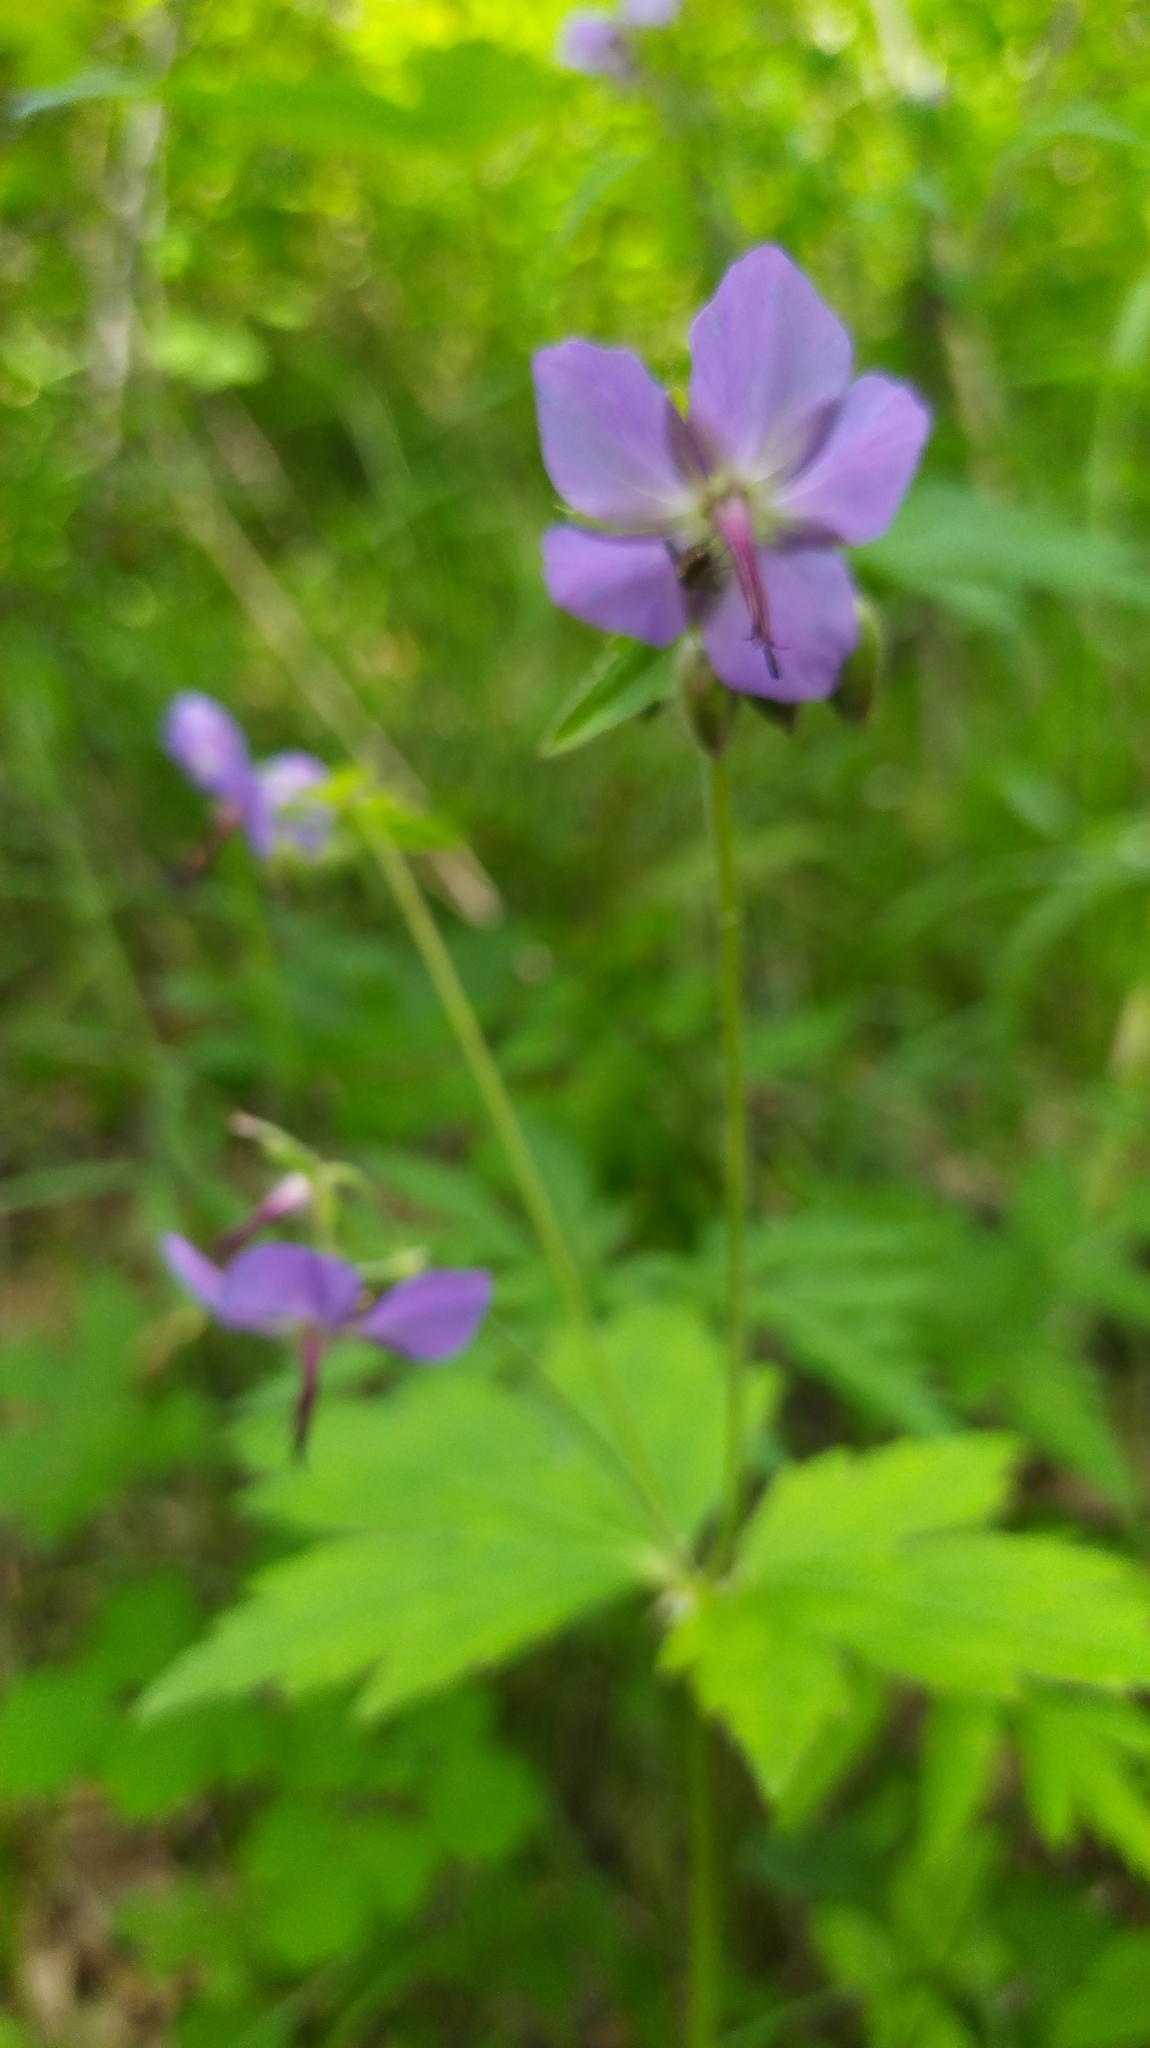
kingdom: Plantae
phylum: Tracheophyta
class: Magnoliopsida
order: Geraniales
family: Geraniaceae
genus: Geranium
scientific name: Geranium platyanthum
